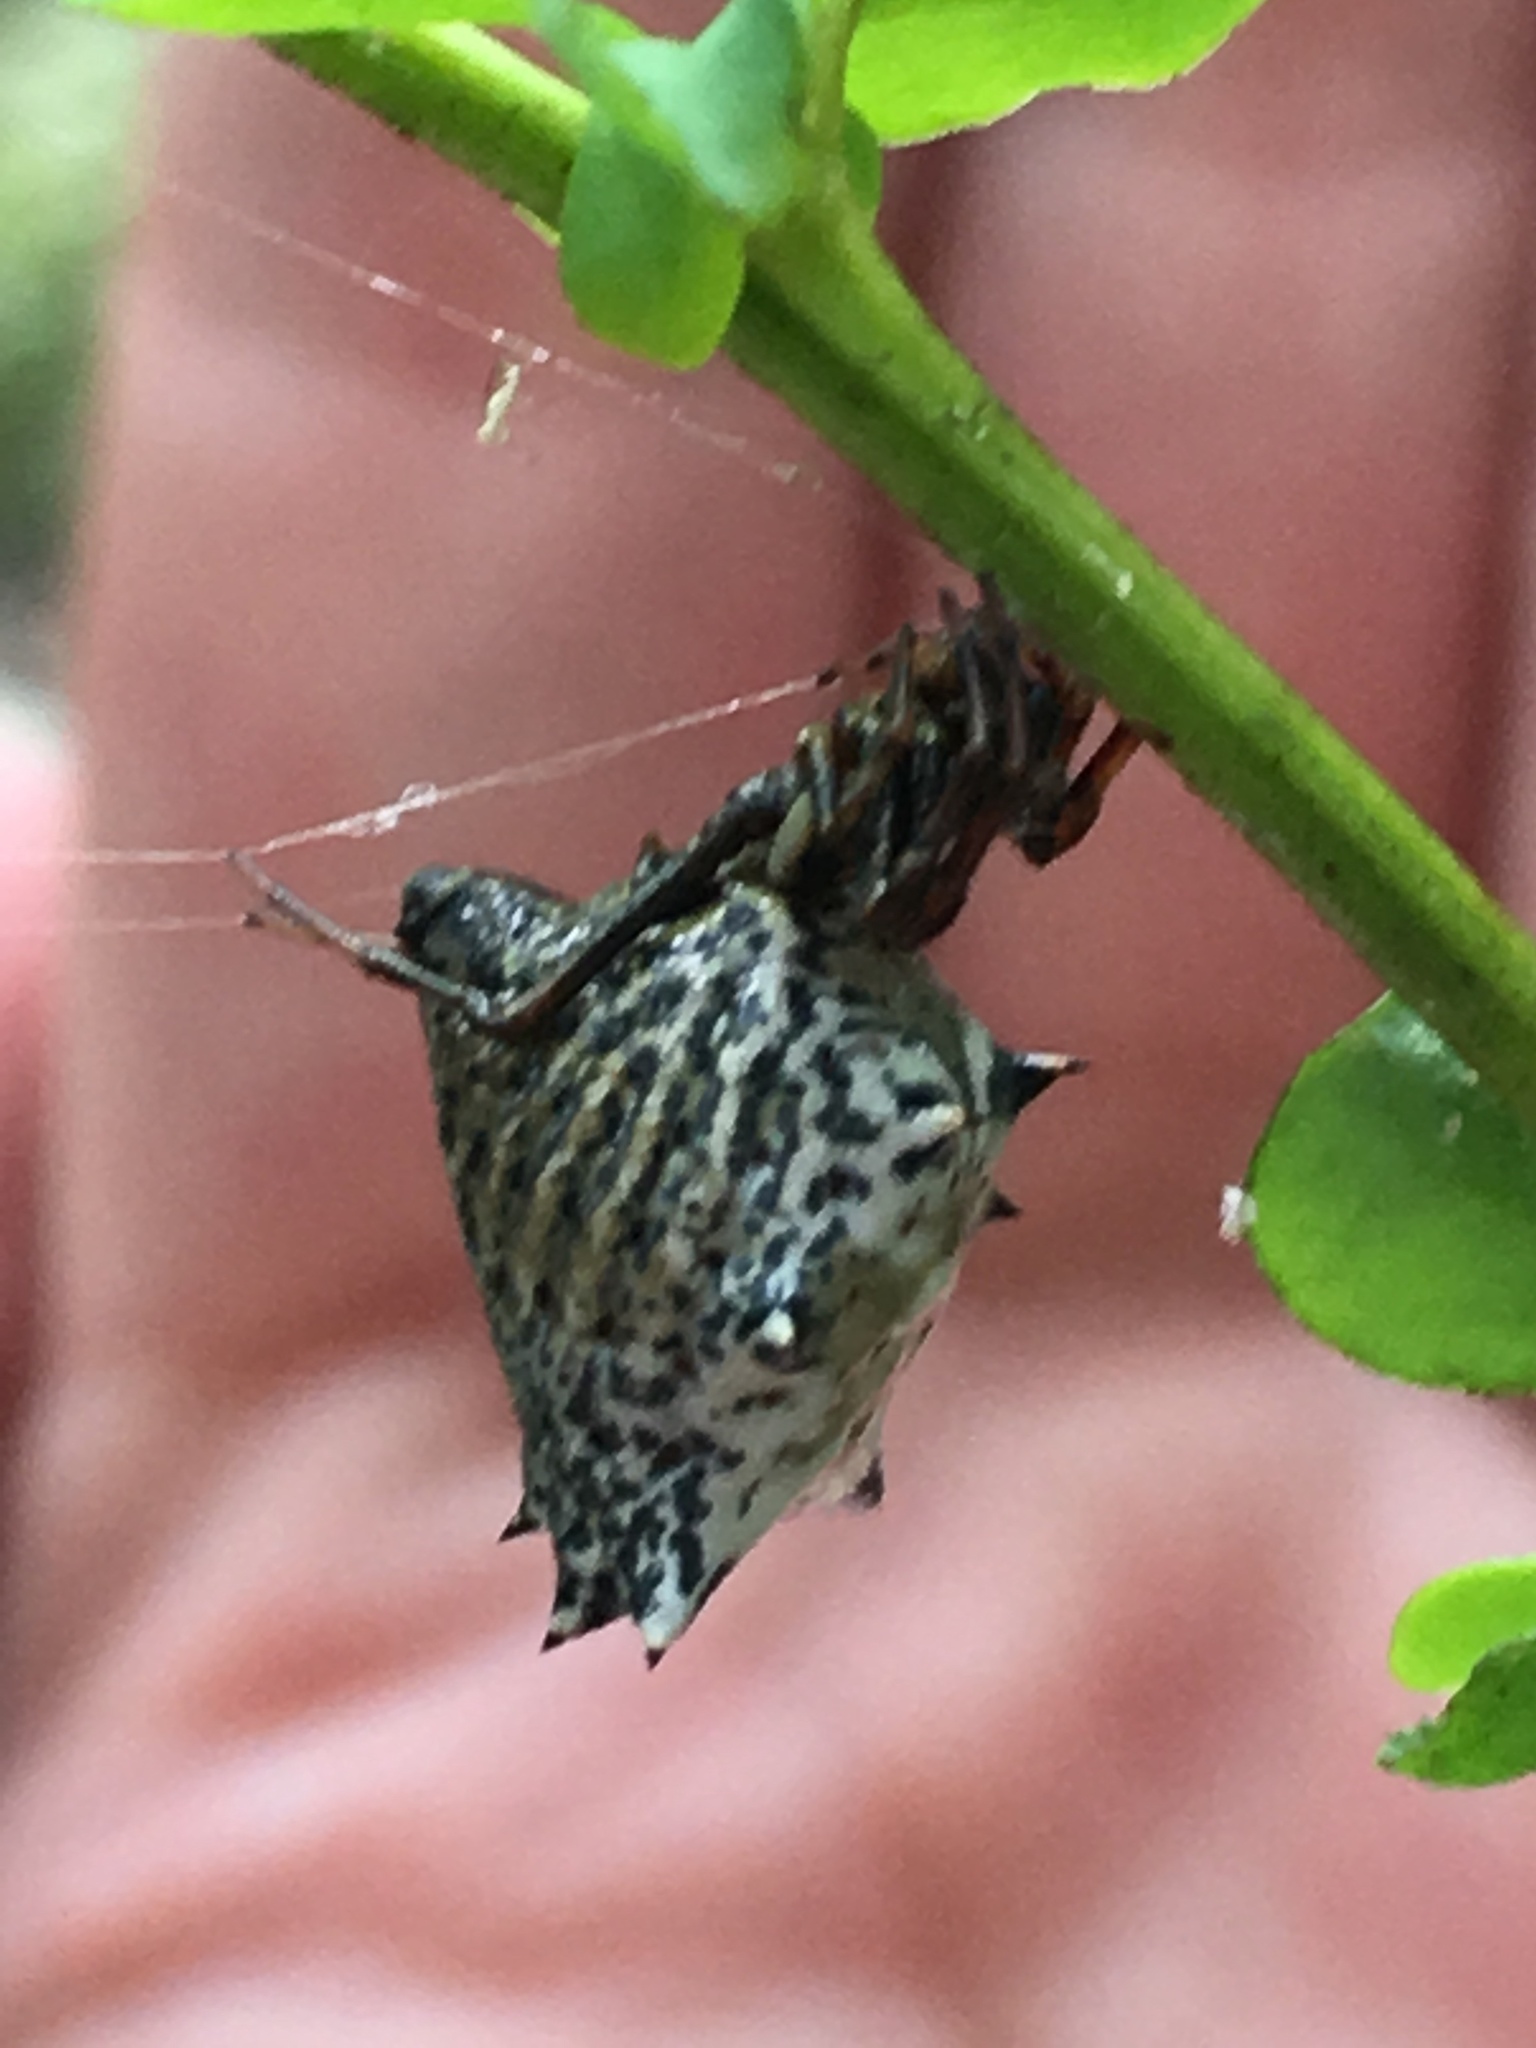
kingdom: Animalia
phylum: Arthropoda
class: Arachnida
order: Araneae
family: Araneidae
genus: Micrathena
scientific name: Micrathena gracilis
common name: Orb weavers
